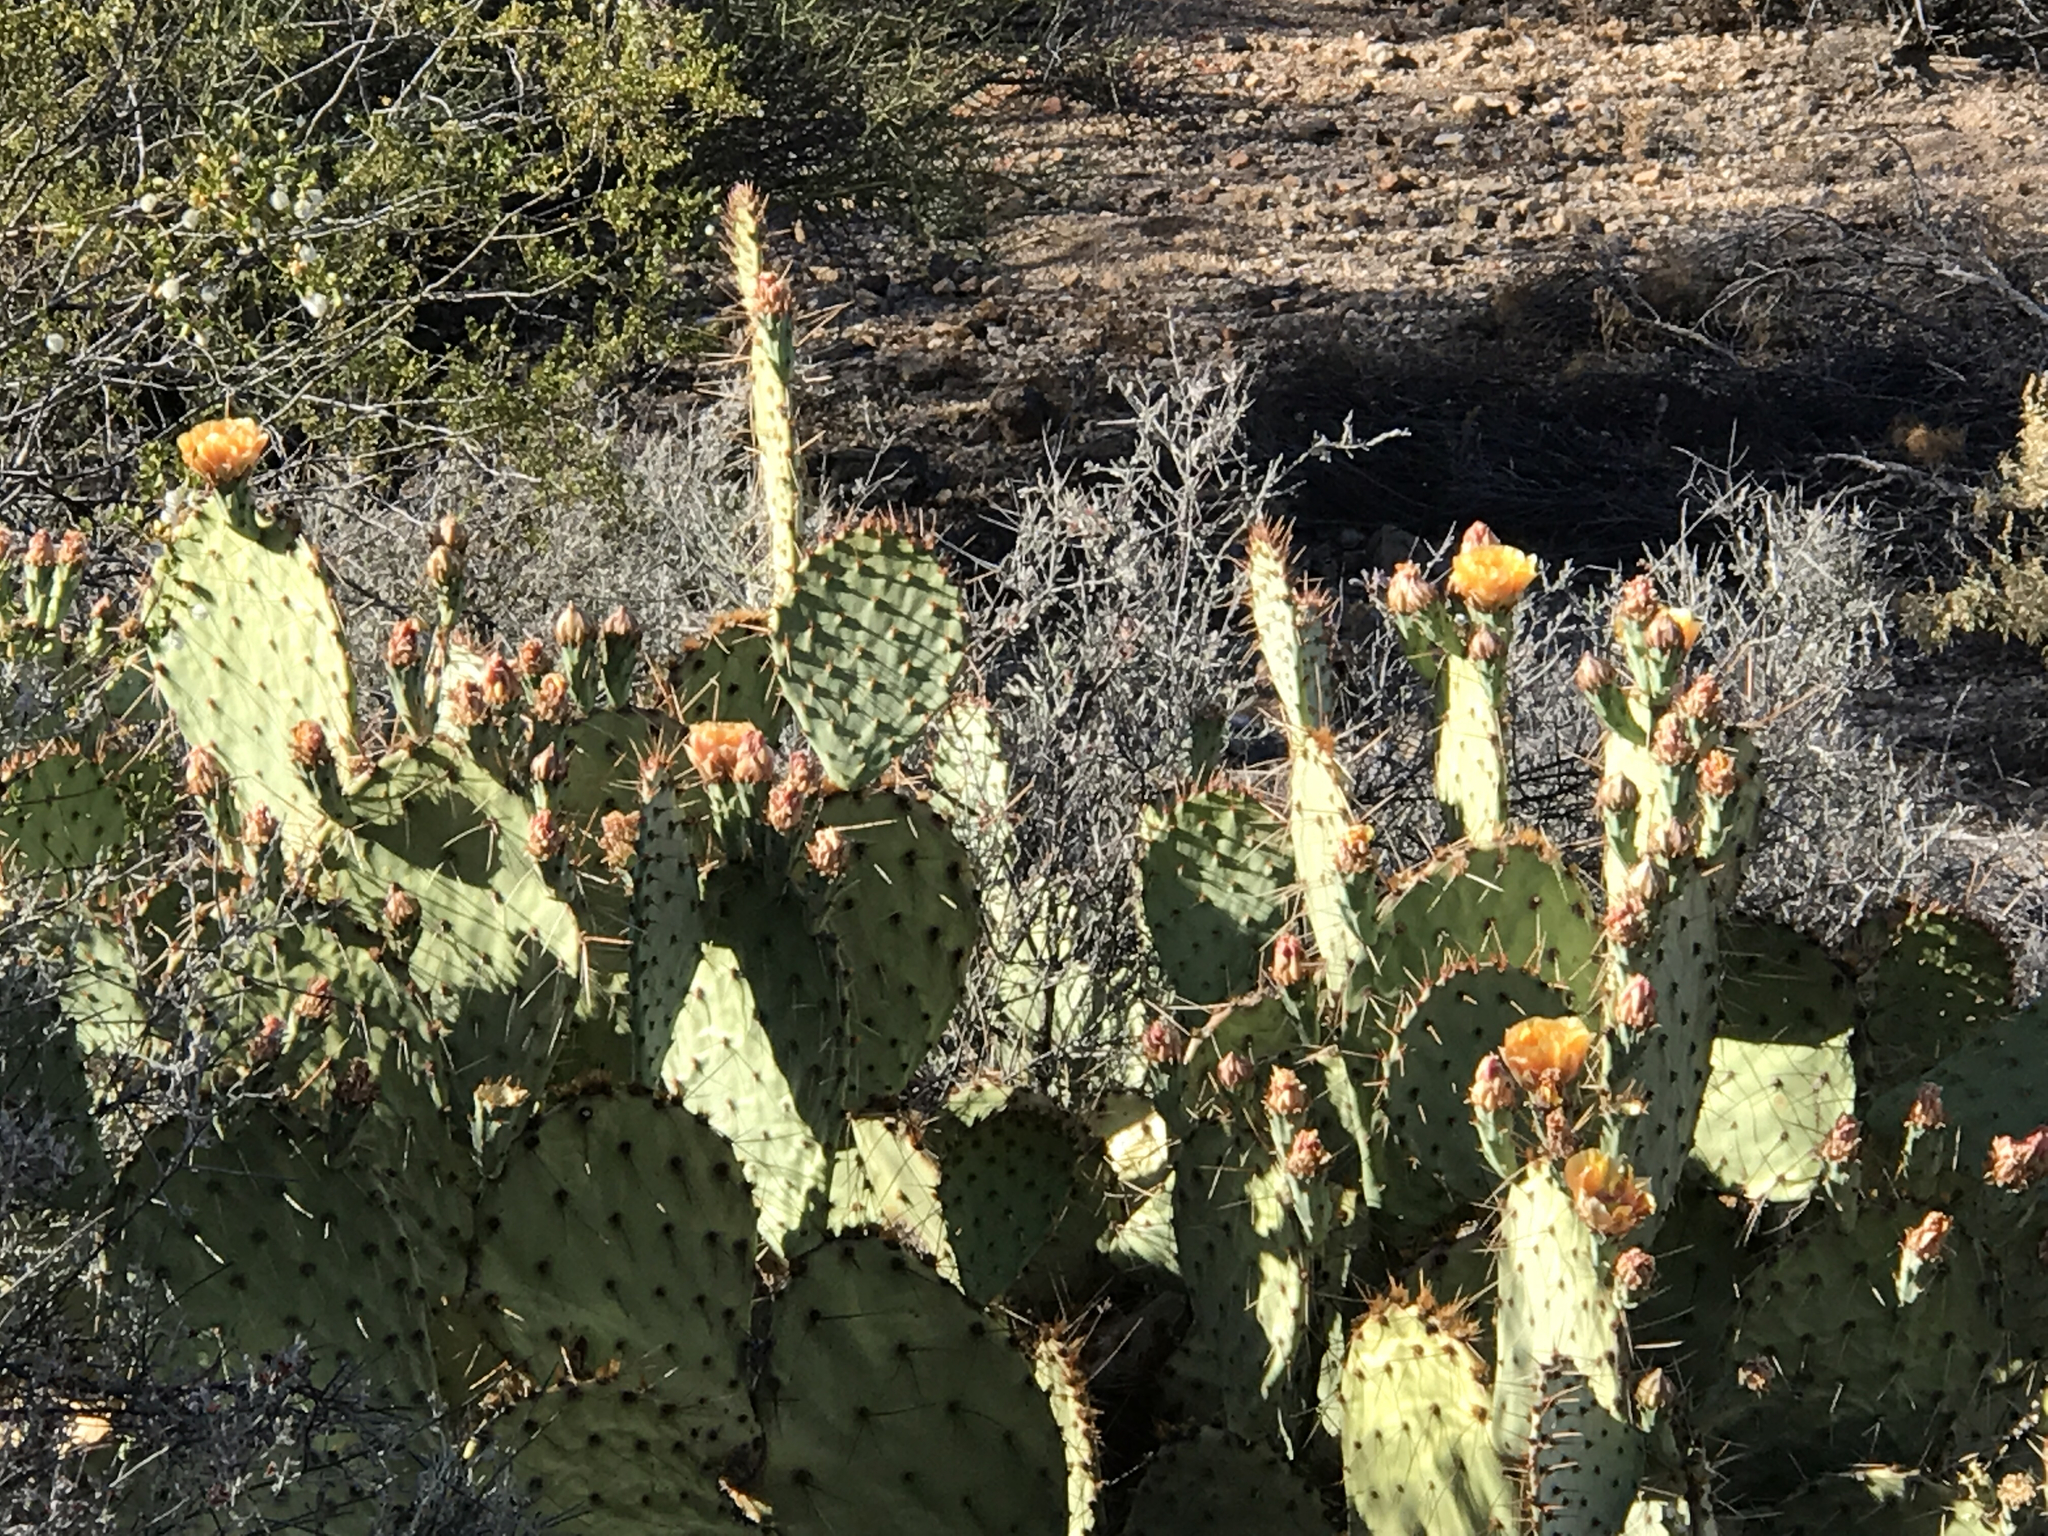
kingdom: Plantae
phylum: Tracheophyta
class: Magnoliopsida
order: Caryophyllales
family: Cactaceae
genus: Opuntia
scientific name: Opuntia engelmannii
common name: Cactus-apple
